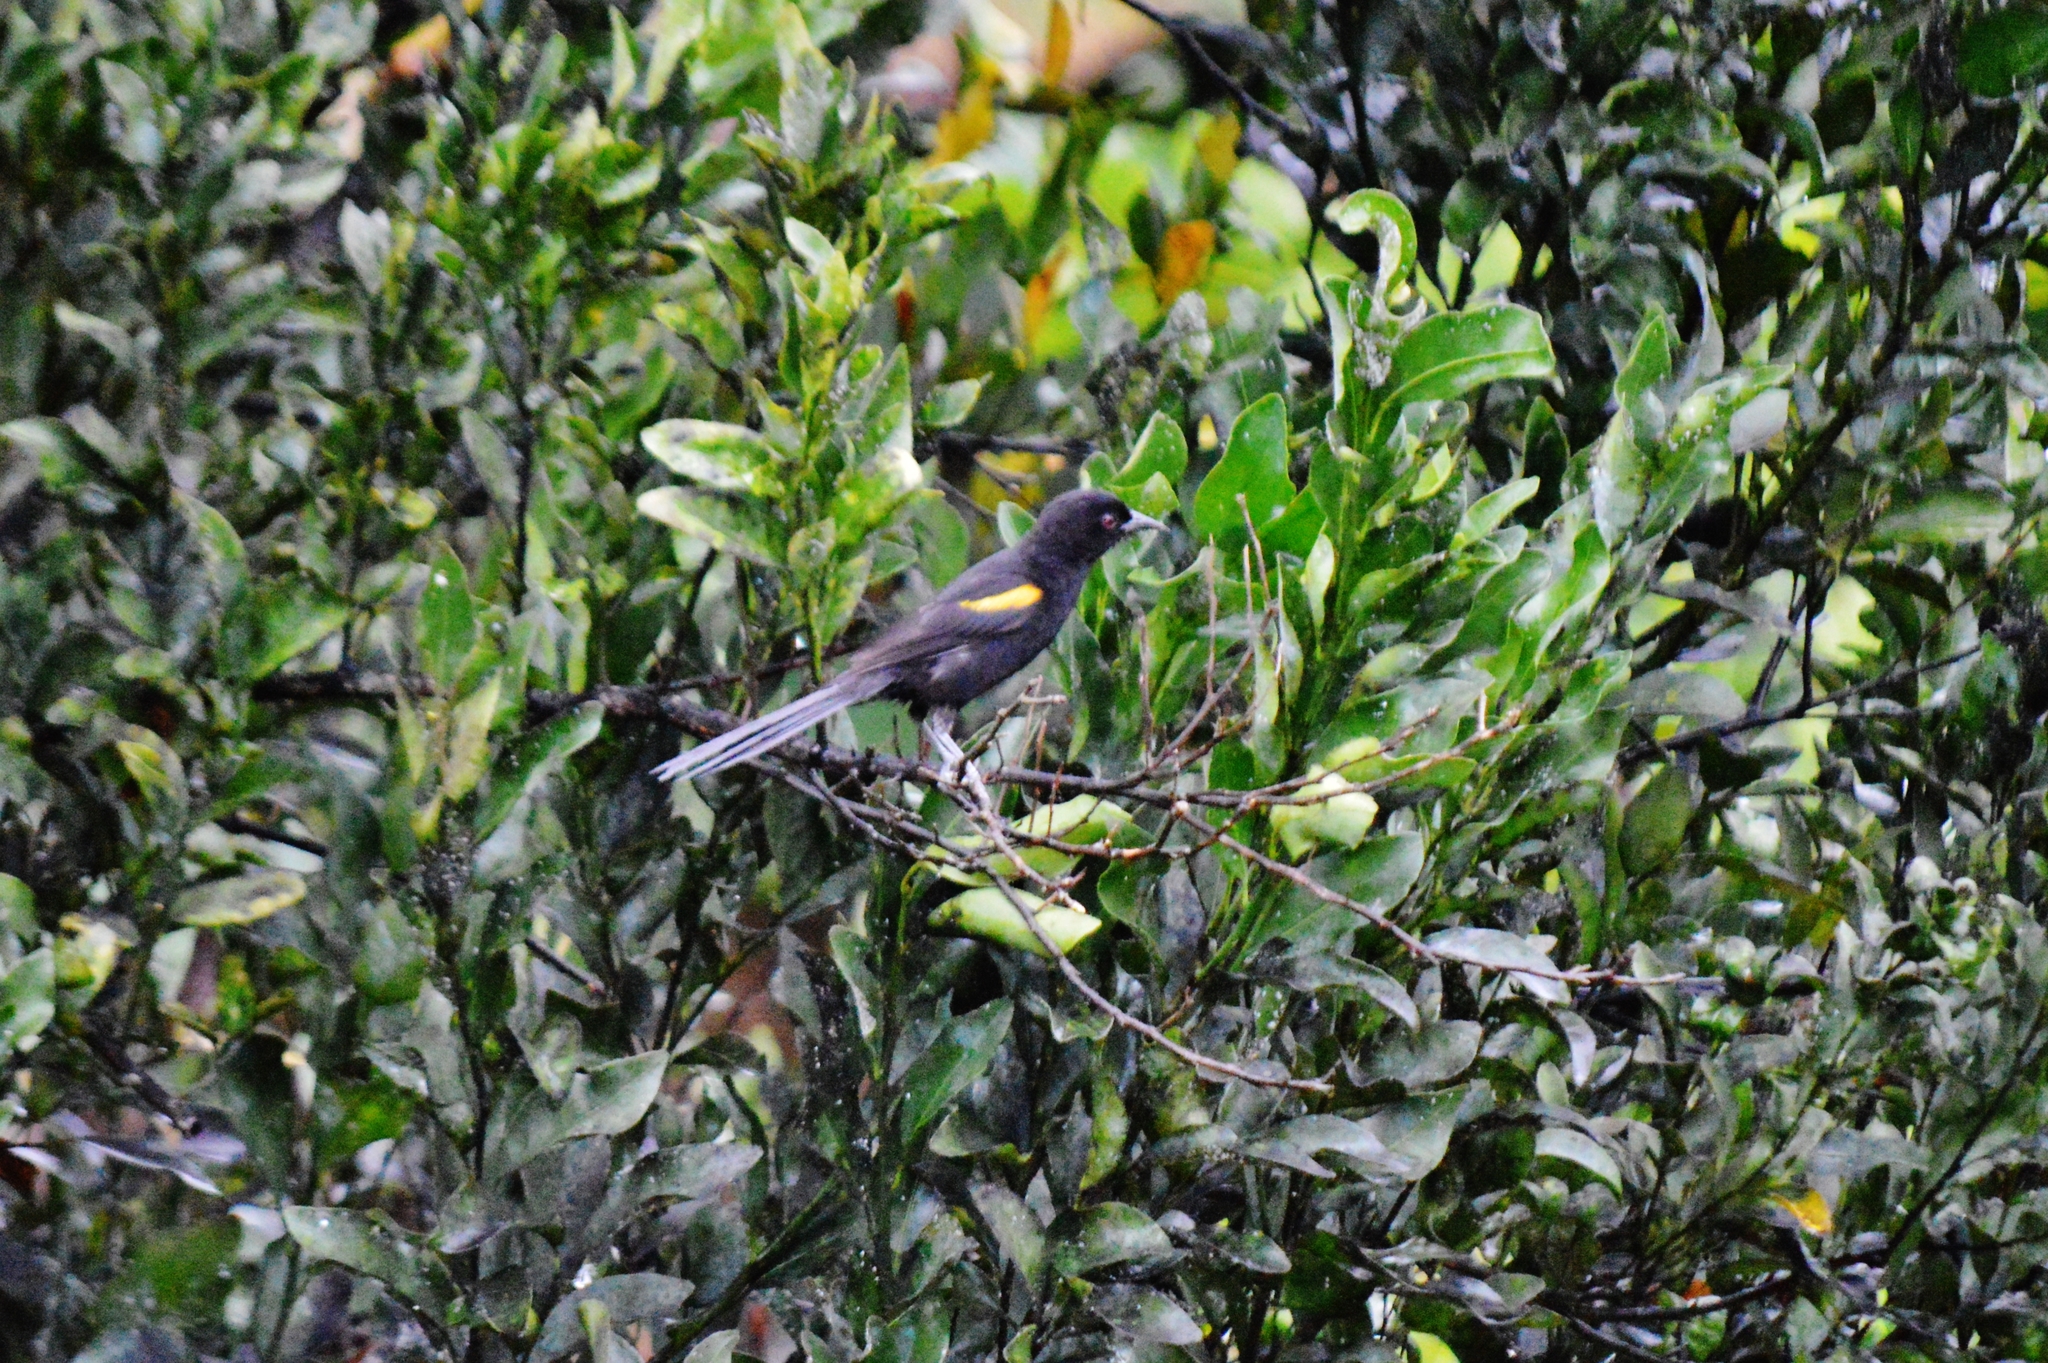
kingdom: Animalia
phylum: Chordata
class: Aves
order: Passeriformes
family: Icteridae
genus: Icterus
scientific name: Icterus cayanensis
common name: Epaulet oriole
